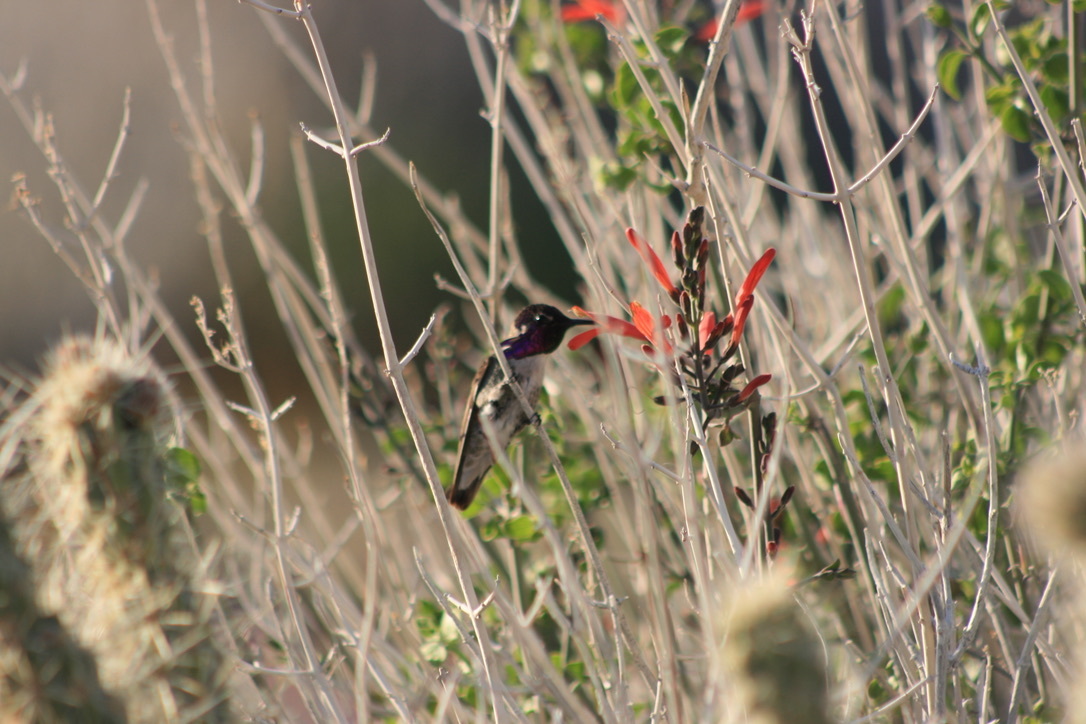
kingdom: Animalia
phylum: Chordata
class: Aves
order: Apodiformes
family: Trochilidae
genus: Calypte
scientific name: Calypte costae
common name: Costa's hummingbird
